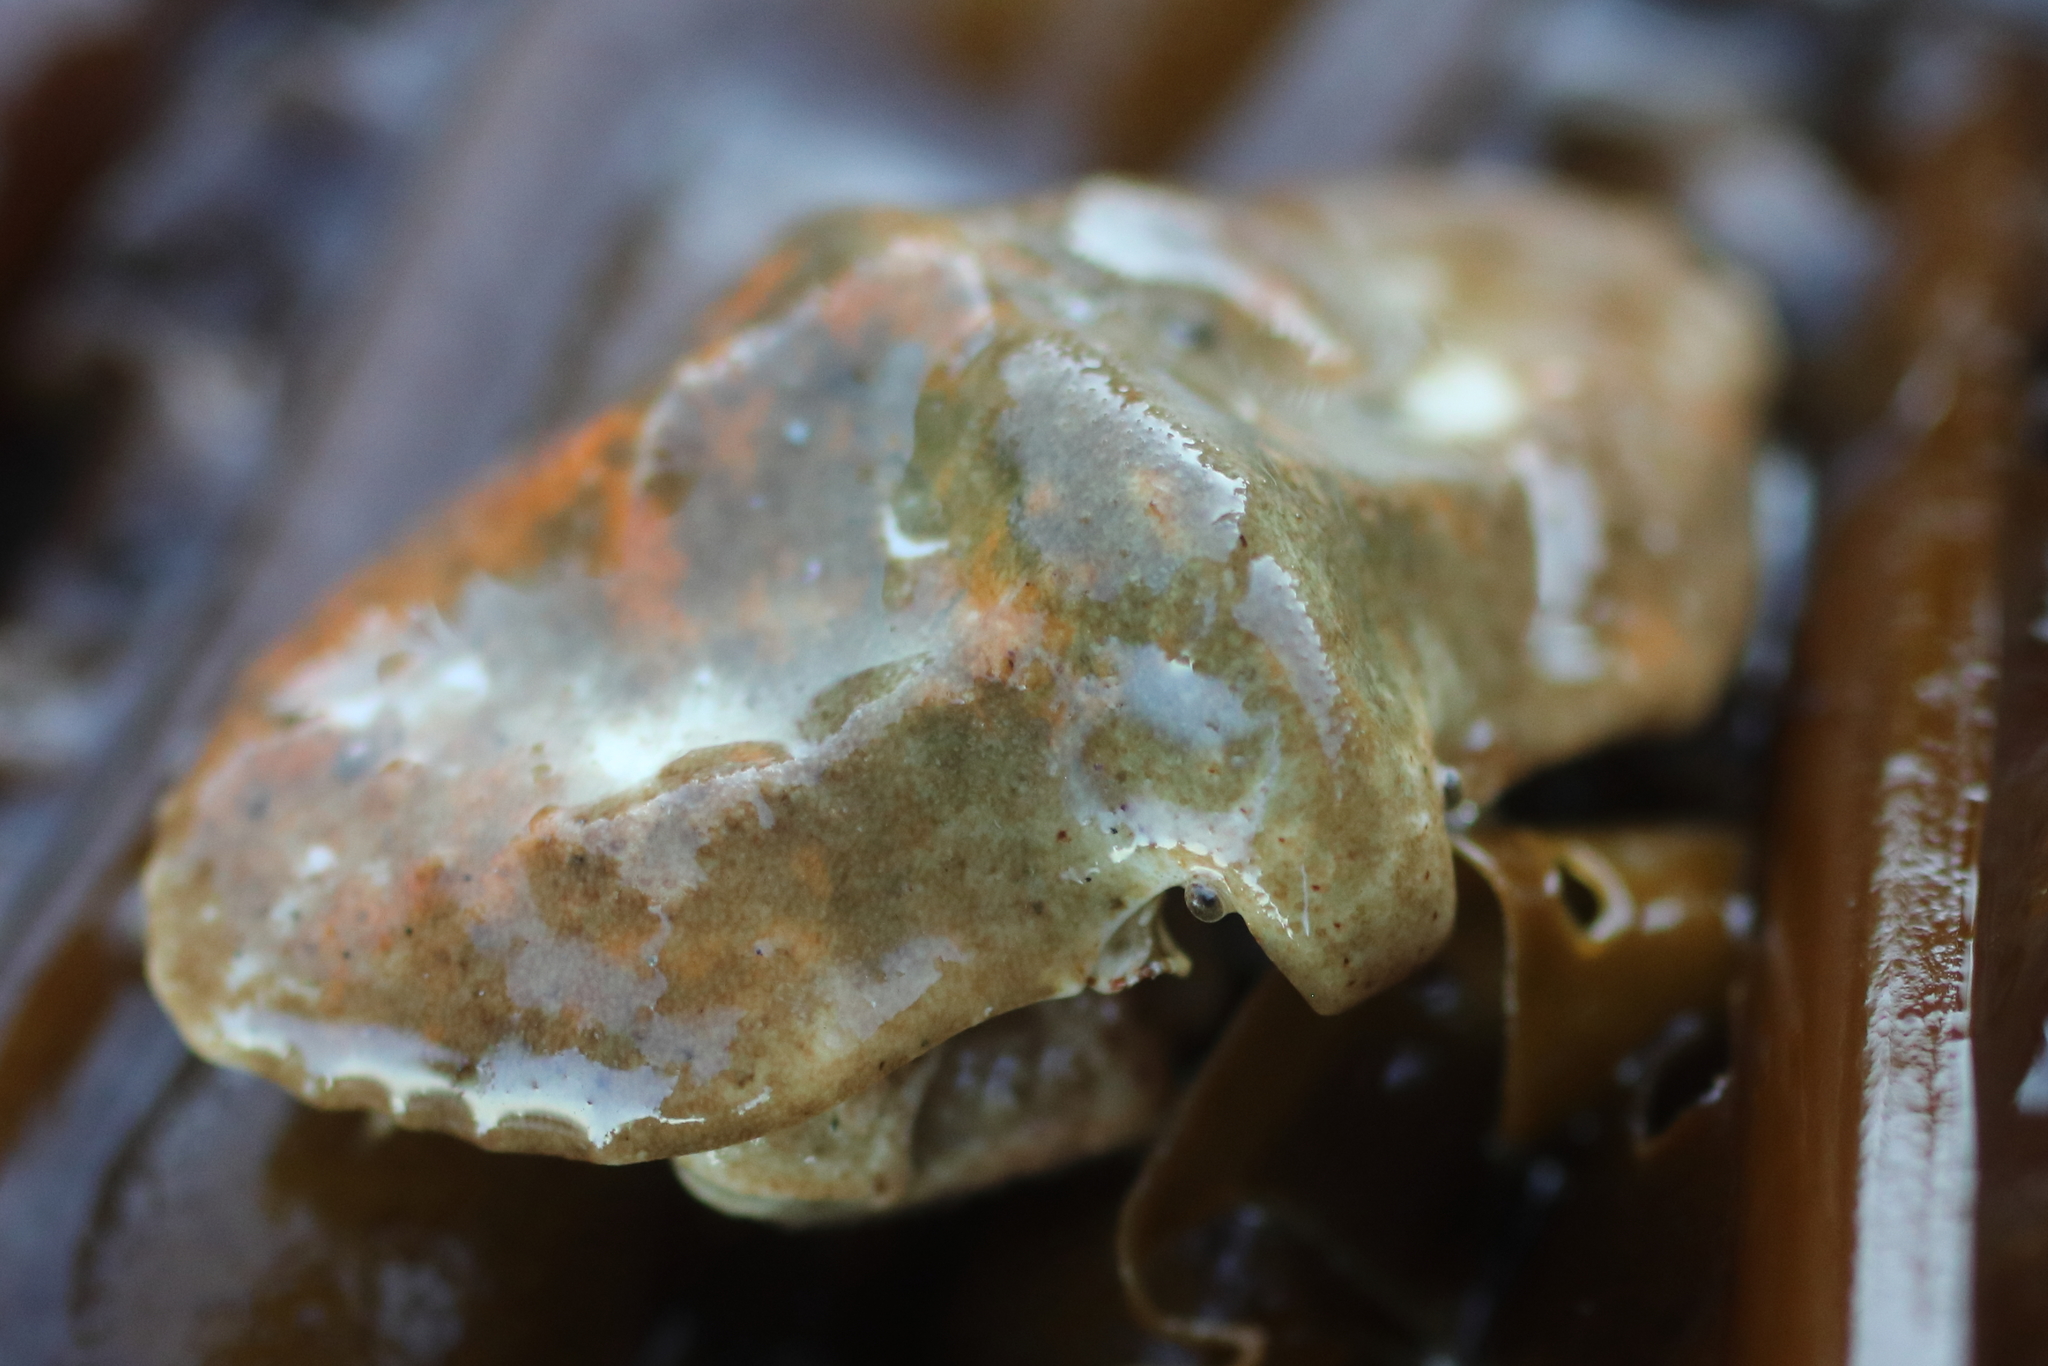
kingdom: Animalia
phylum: Arthropoda
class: Malacostraca
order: Decapoda
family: Lithodidae
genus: Cryptolithodes
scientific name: Cryptolithodes typicus
